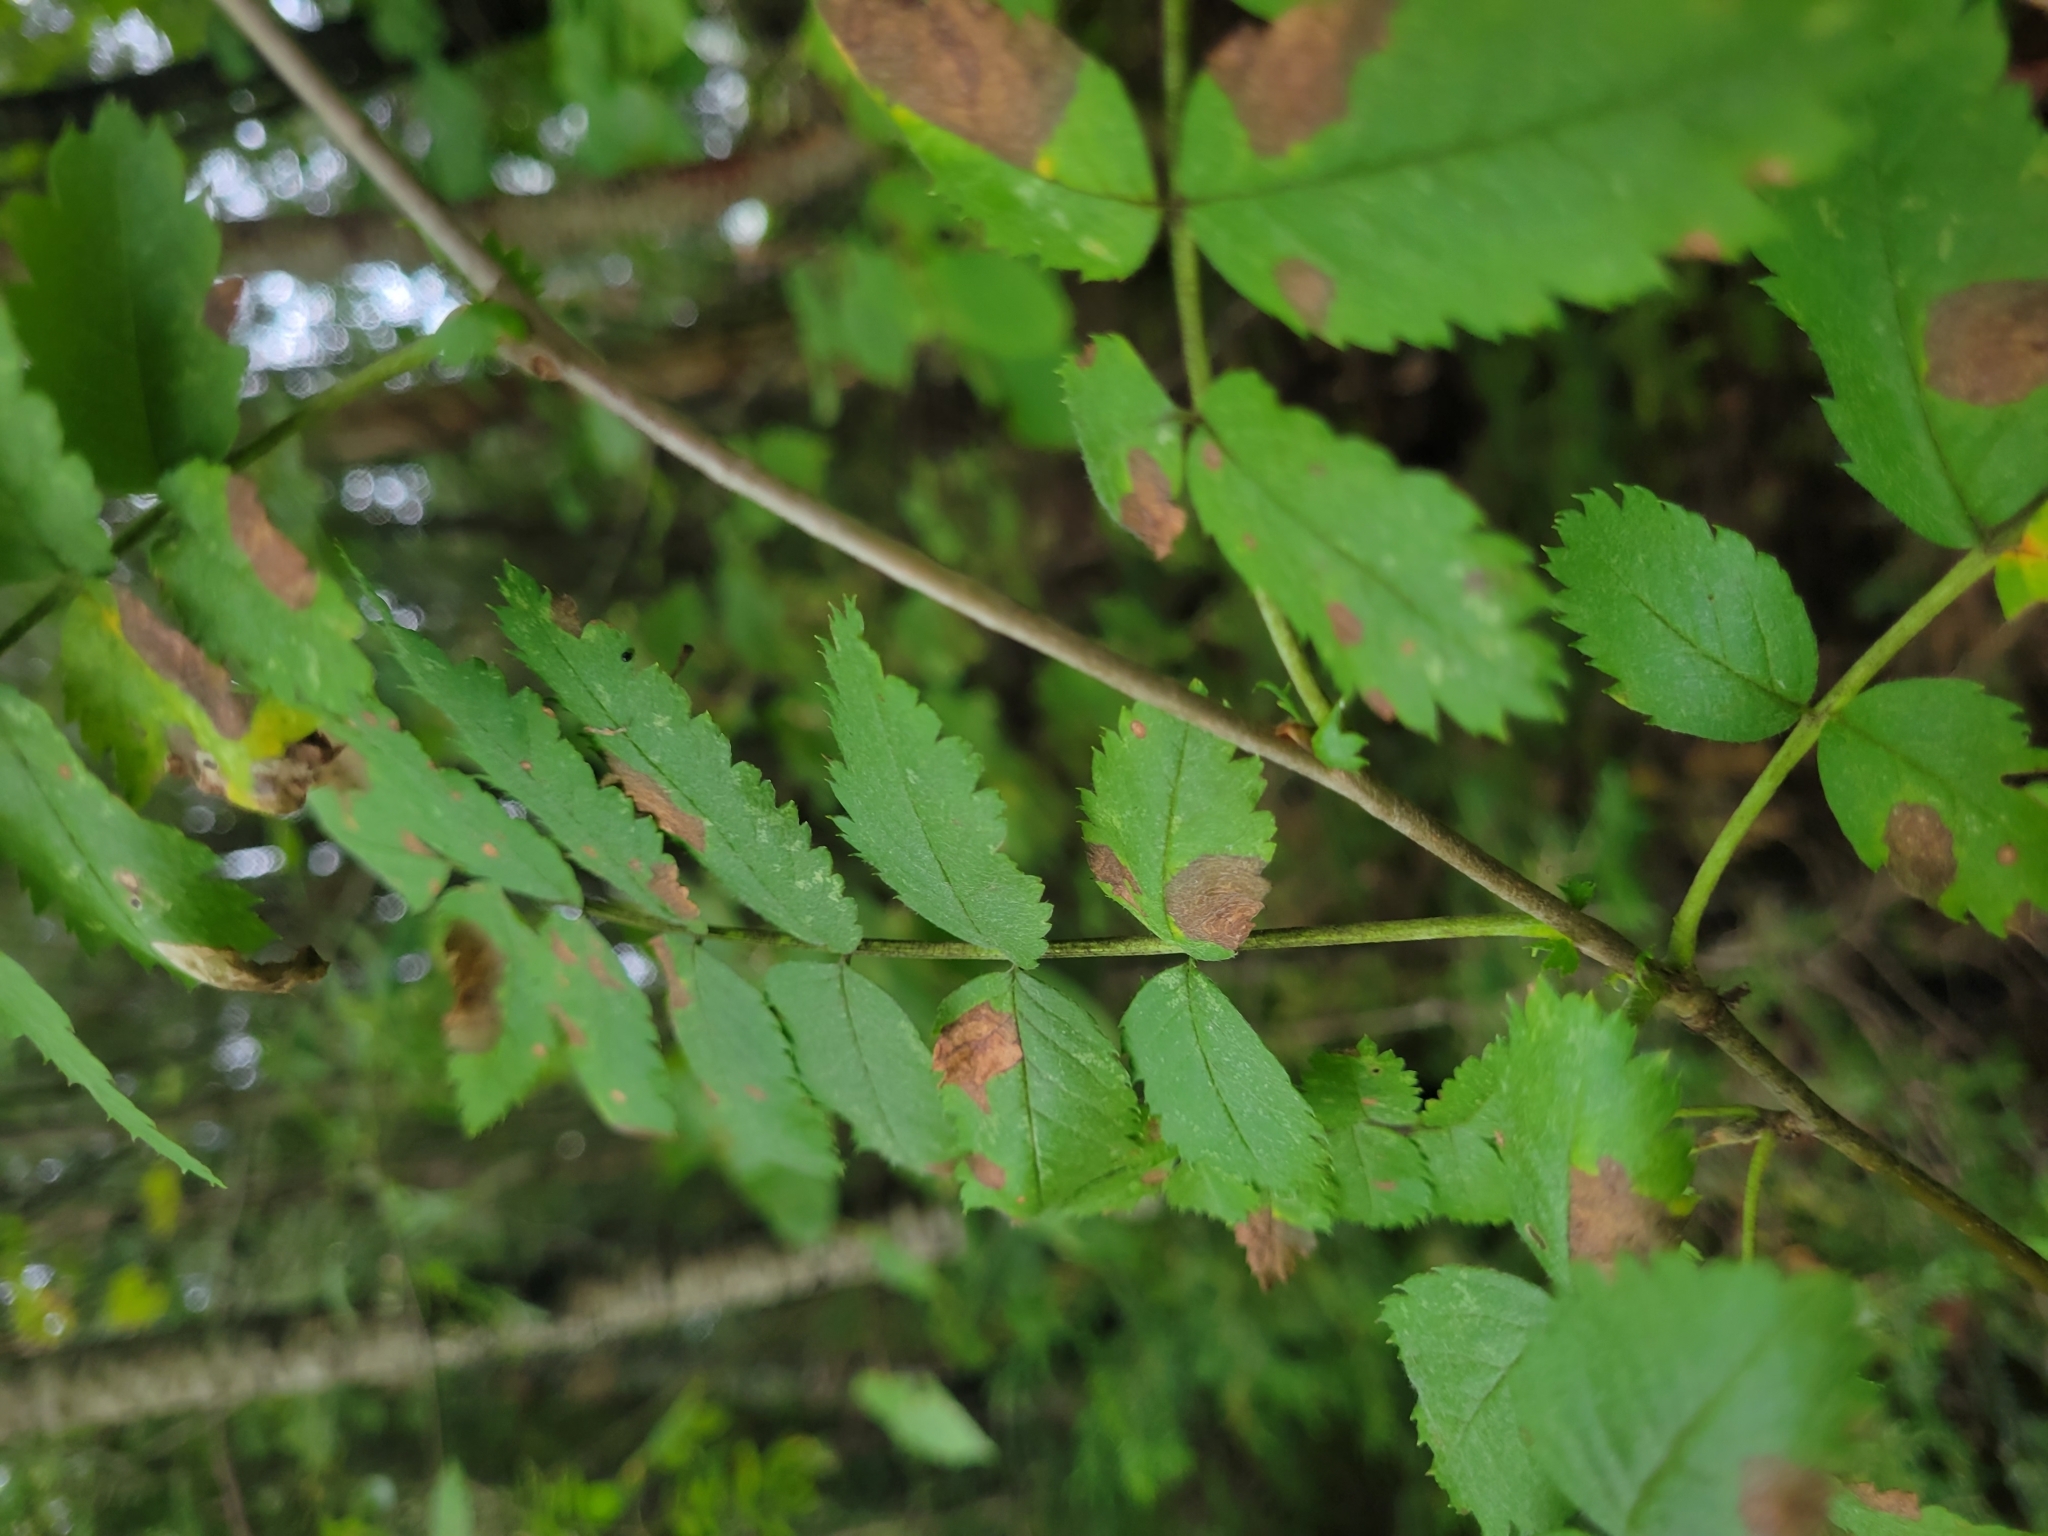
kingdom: Plantae
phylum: Tracheophyta
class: Magnoliopsida
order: Rosales
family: Rosaceae
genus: Sorbus
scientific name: Sorbus aucuparia
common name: Rowan
